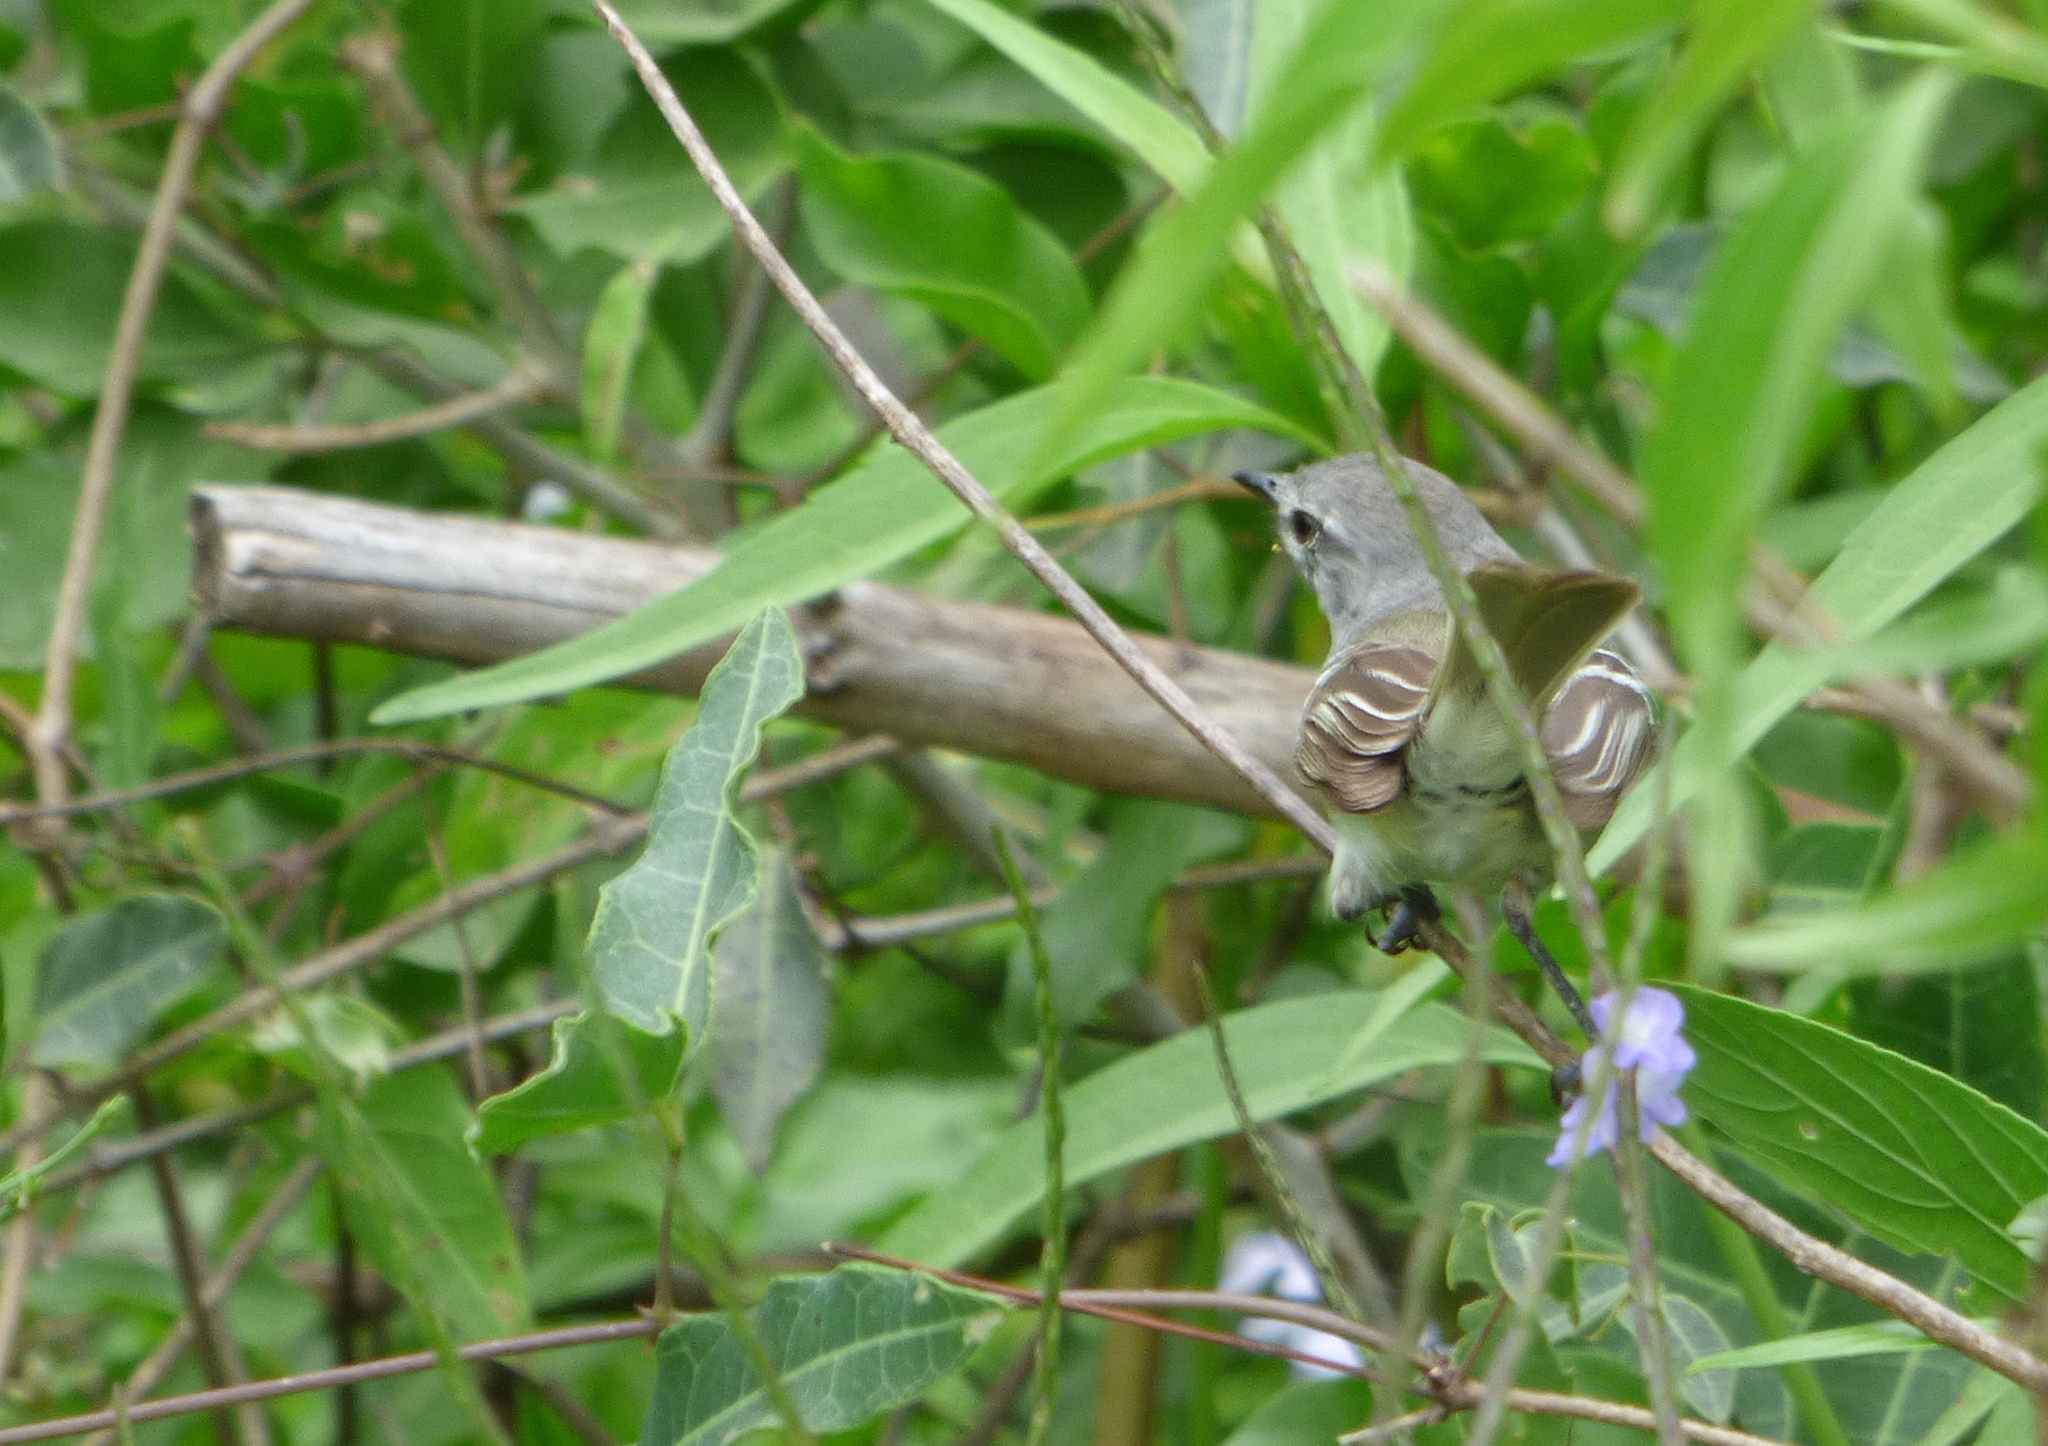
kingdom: Animalia
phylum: Chordata
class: Aves
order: Passeriformes
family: Tyrannidae
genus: Inezia
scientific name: Inezia inornata
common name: Plain inezia
